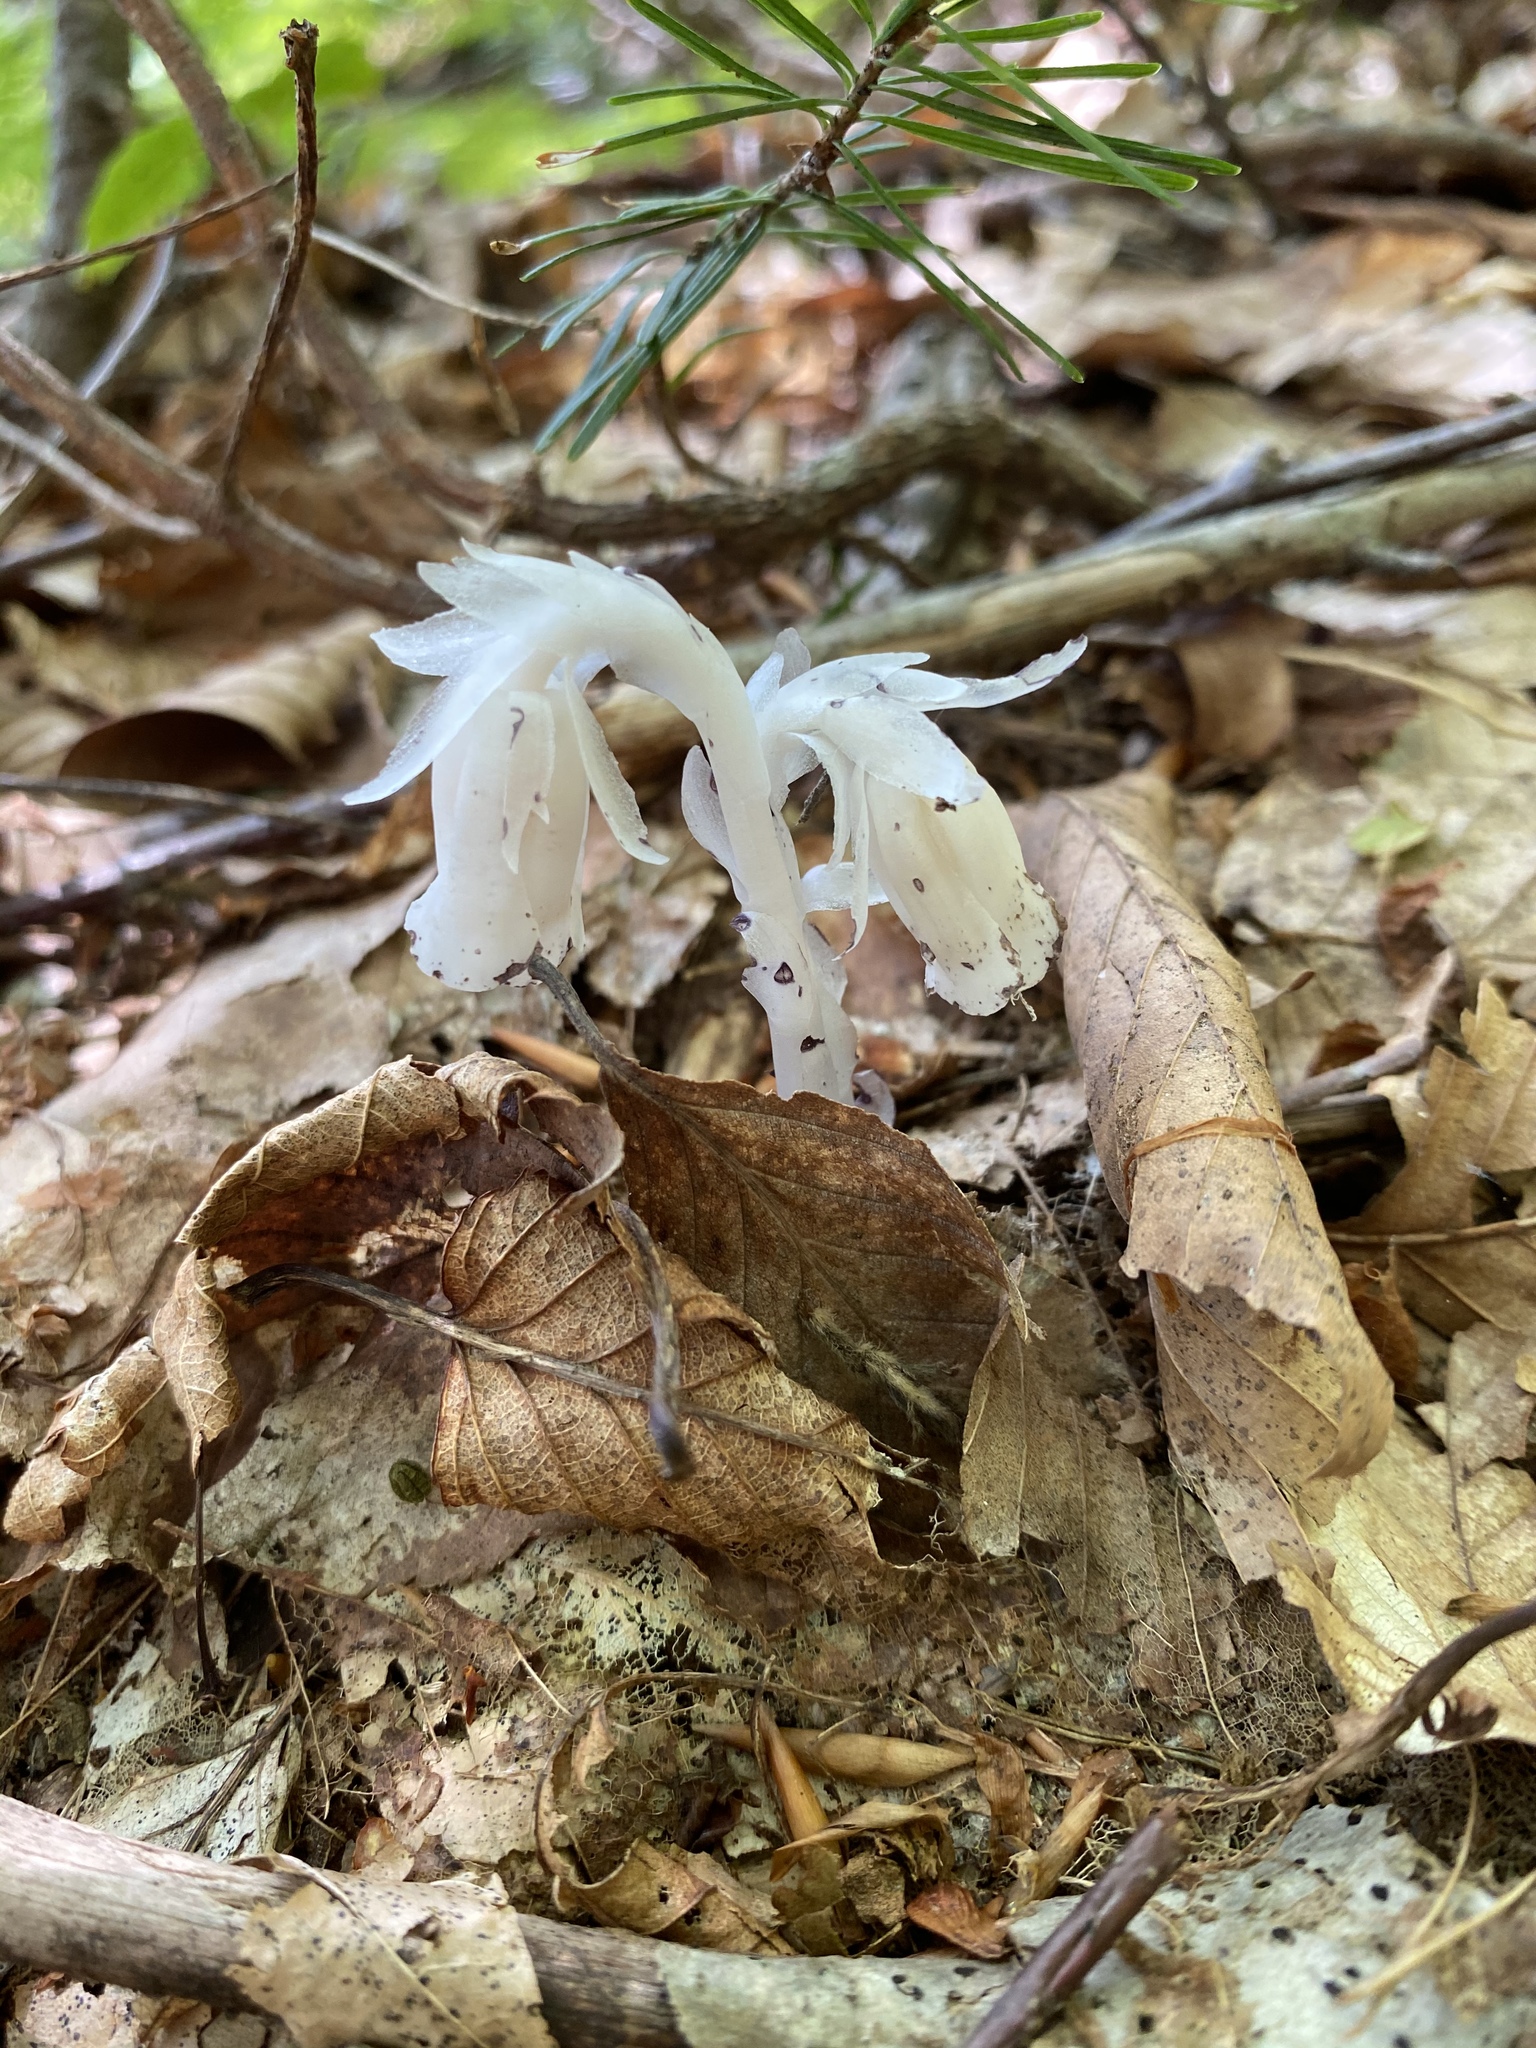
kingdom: Plantae
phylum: Tracheophyta
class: Magnoliopsida
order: Ericales
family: Ericaceae
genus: Monotropa
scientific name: Monotropa uniflora
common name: Convulsion root
